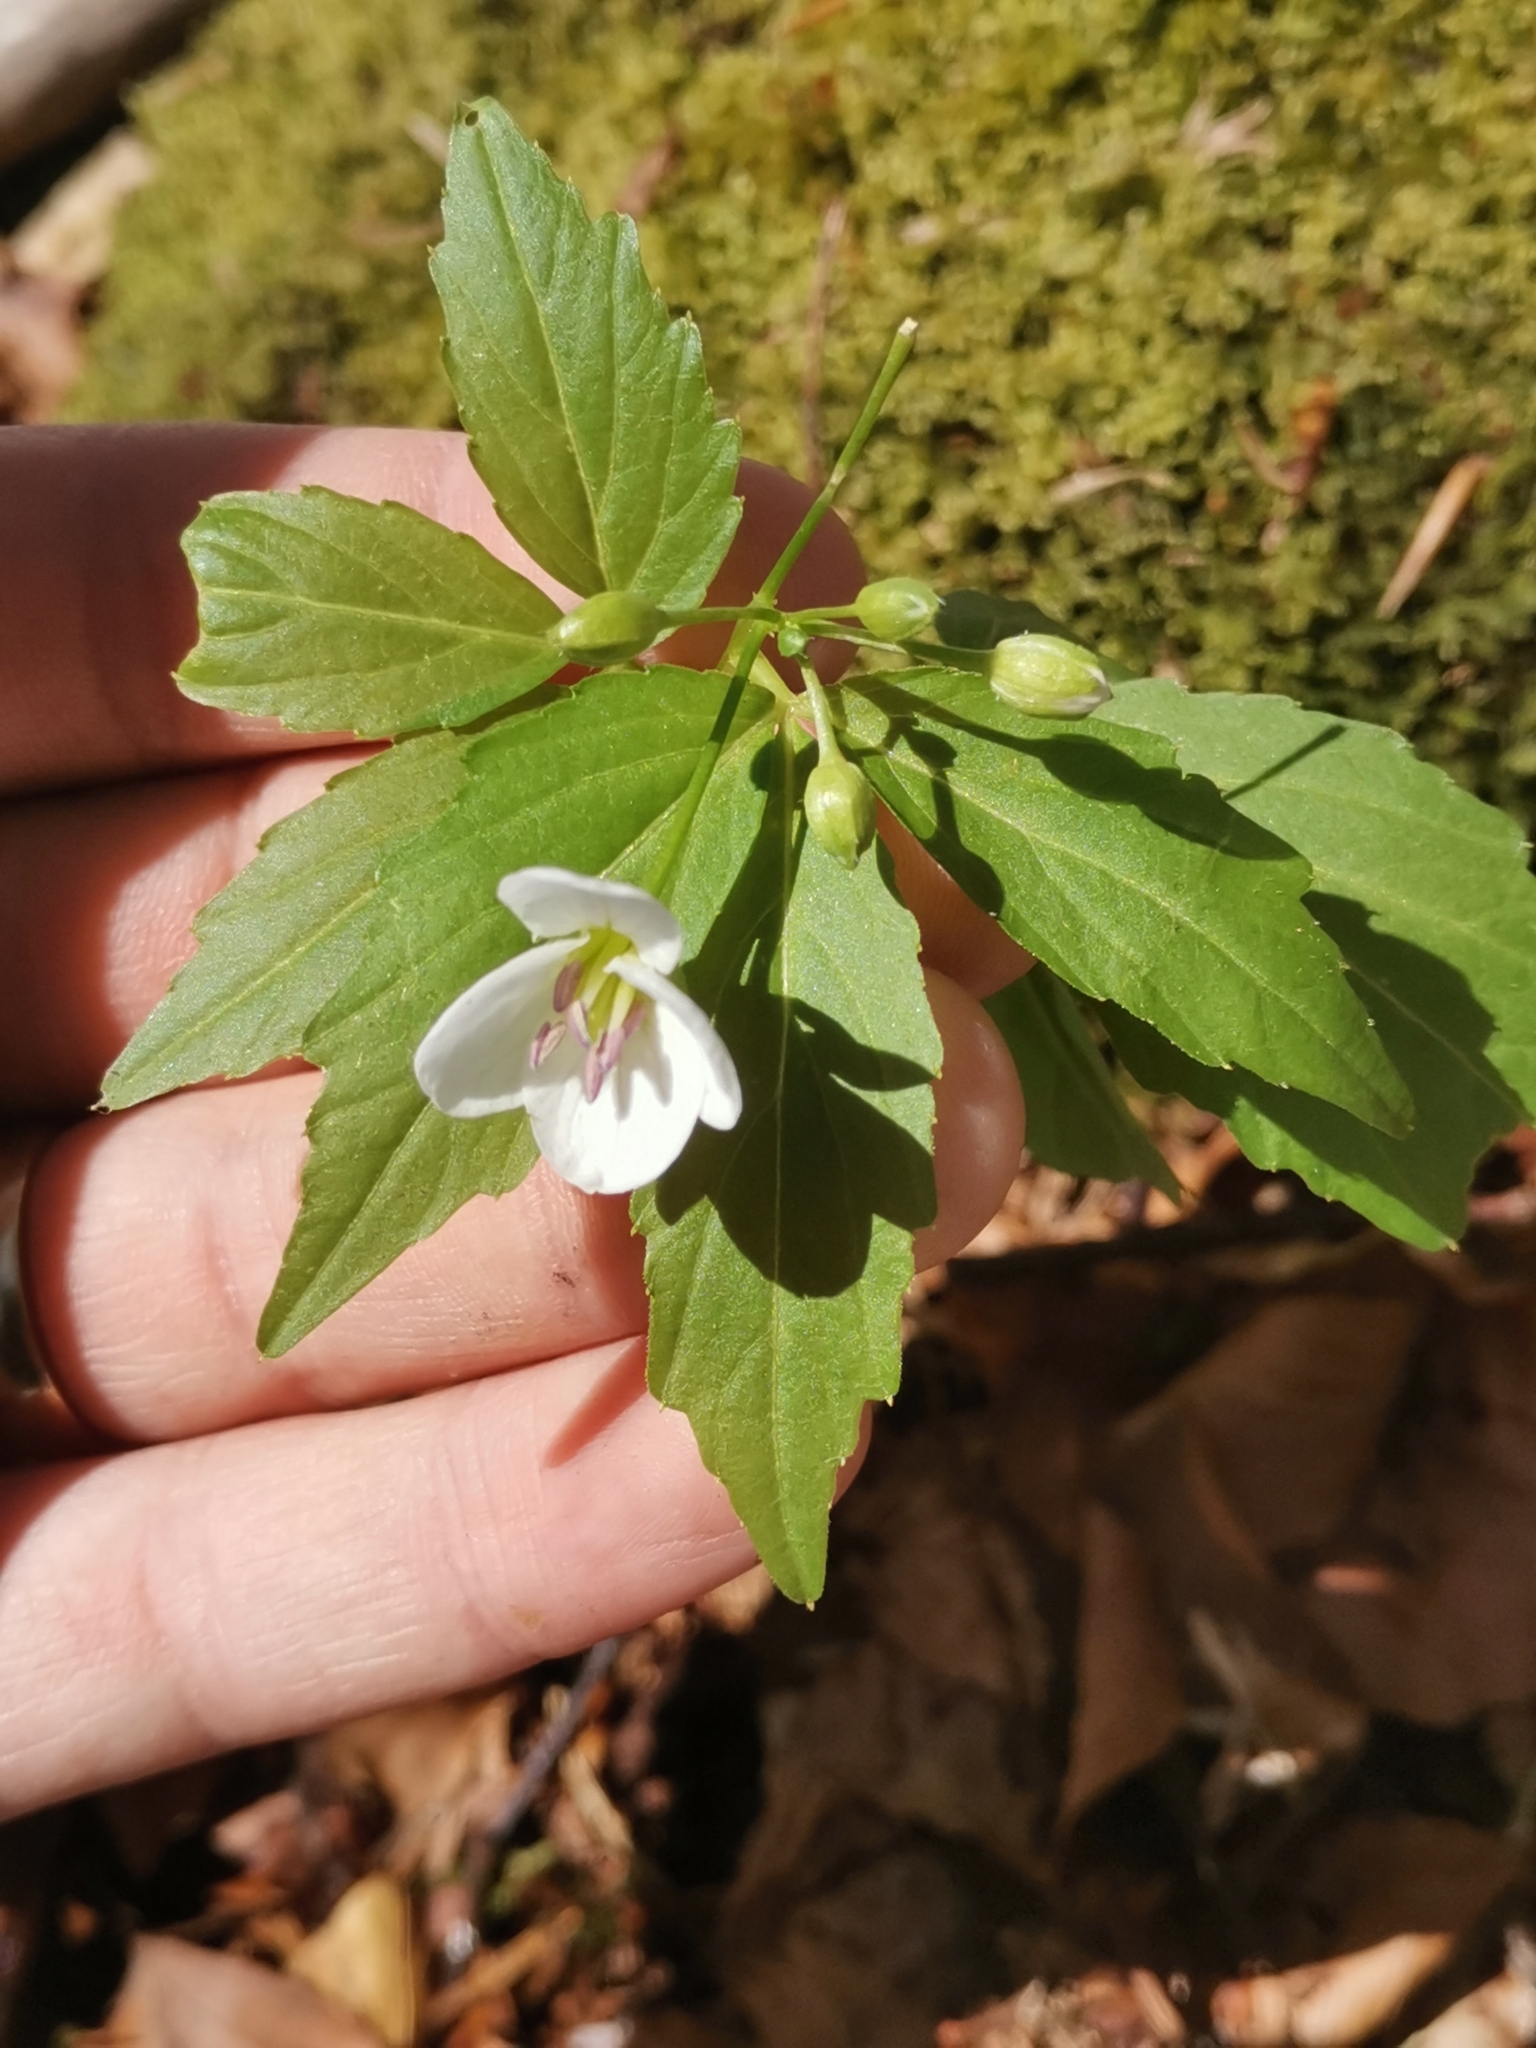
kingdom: Plantae
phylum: Tracheophyta
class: Magnoliopsida
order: Brassicales
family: Brassicaceae
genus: Cardamine
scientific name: Cardamine waldsteinii
